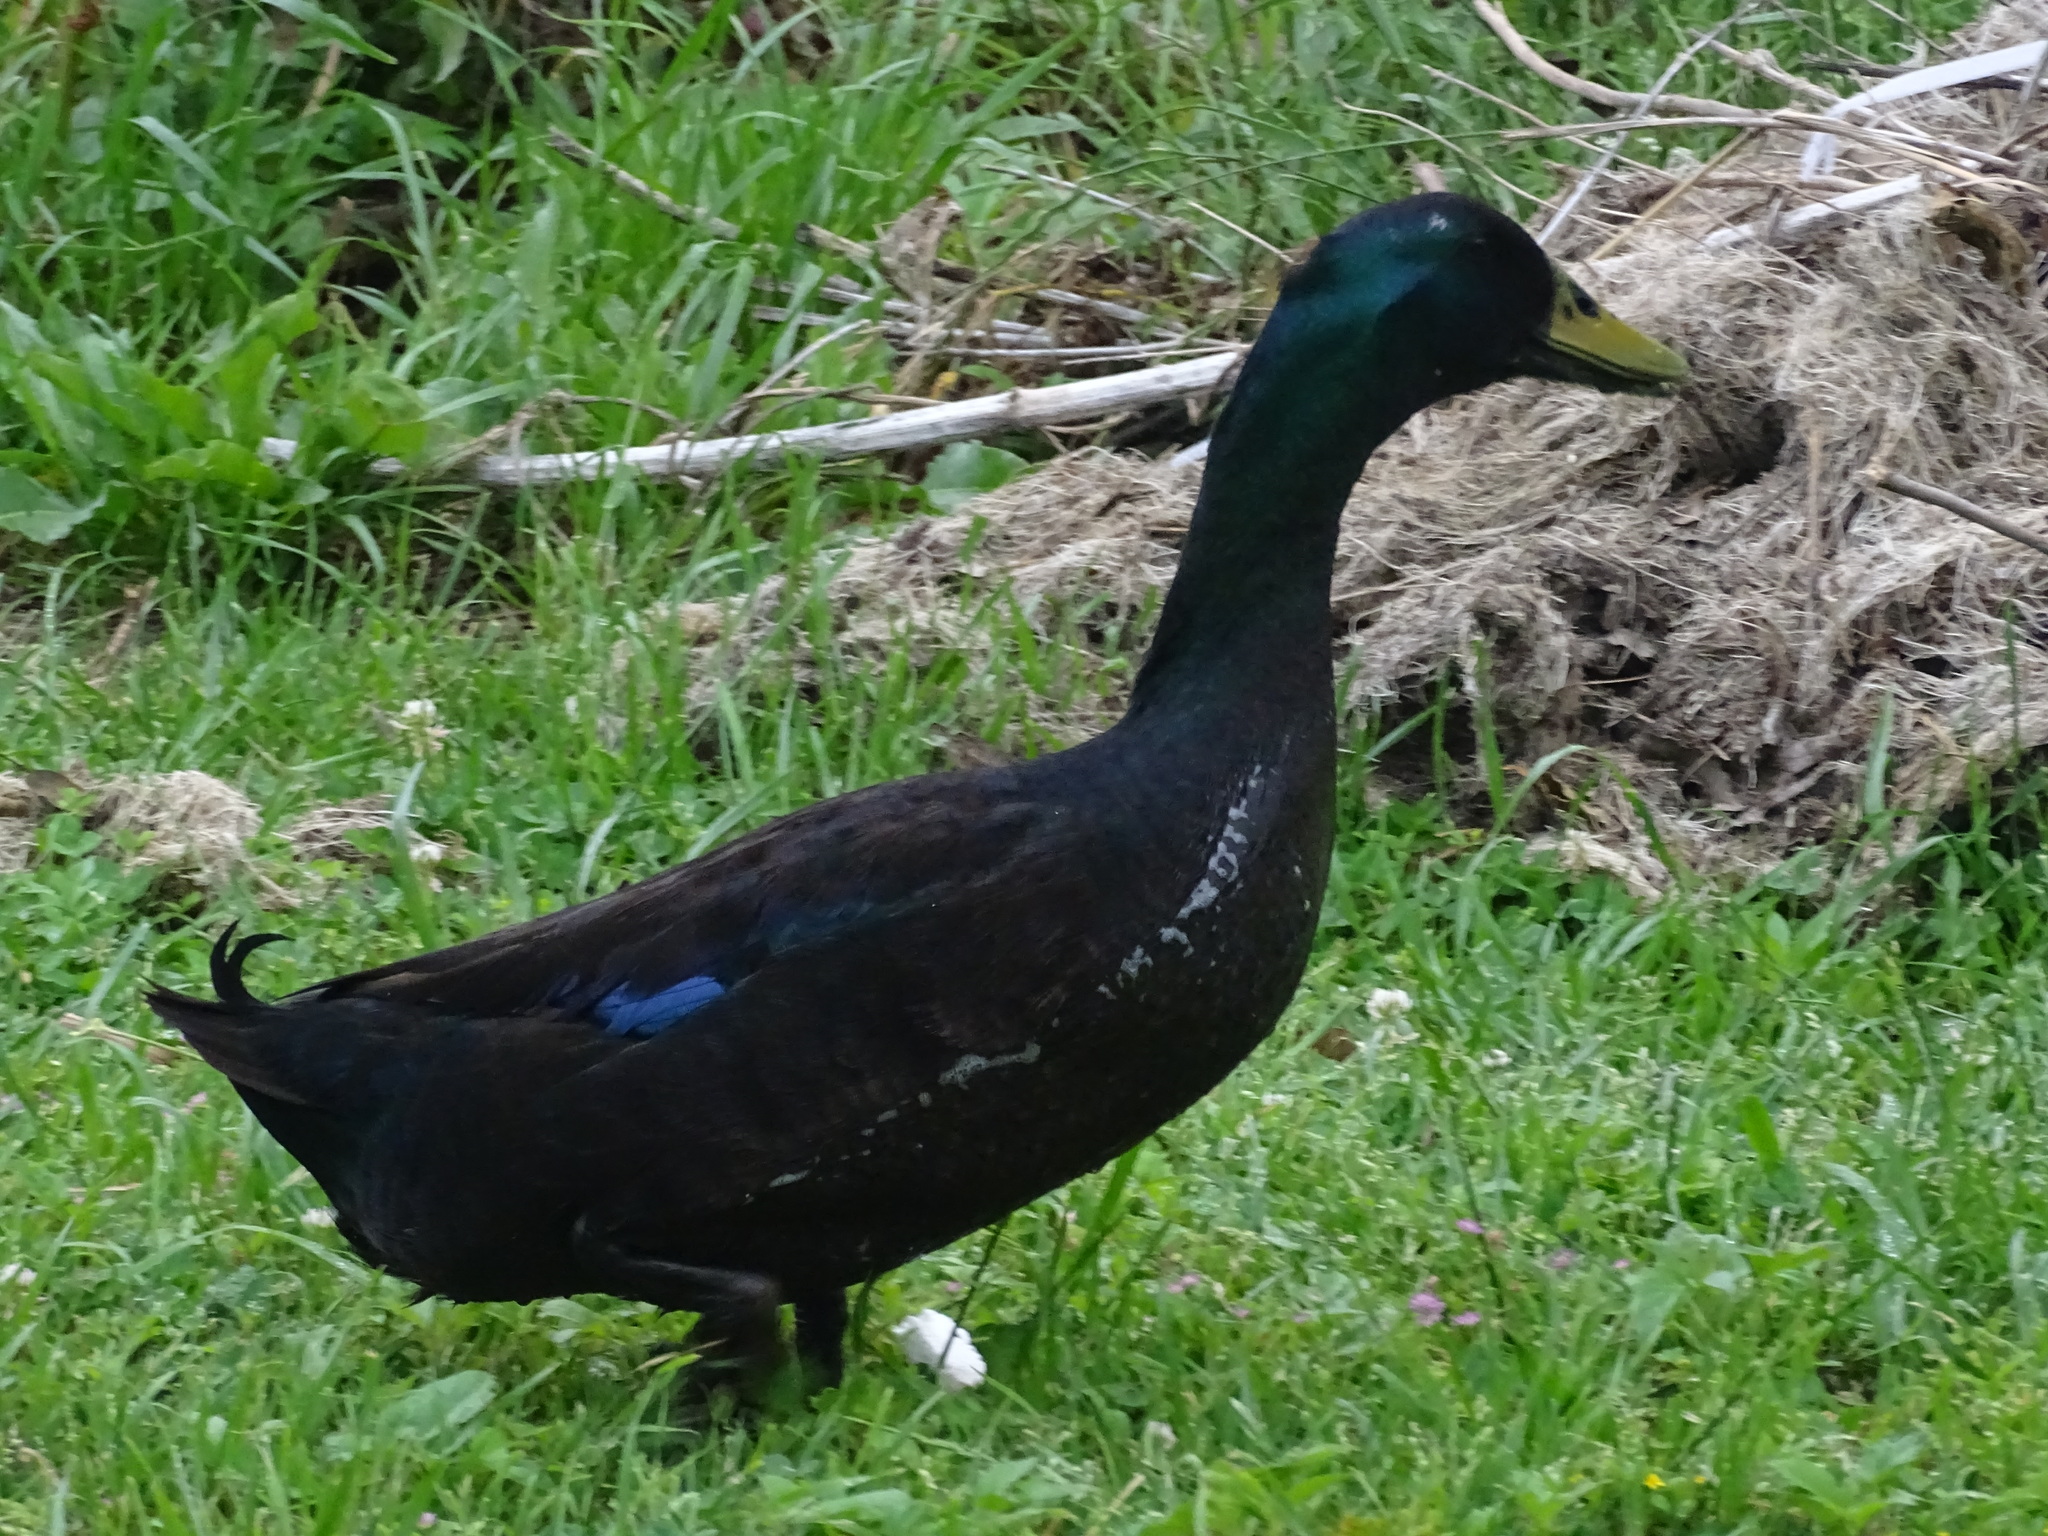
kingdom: Animalia
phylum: Chordata
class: Aves
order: Anseriformes
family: Anatidae
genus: Anas
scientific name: Anas platyrhynchos
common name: Mallard
